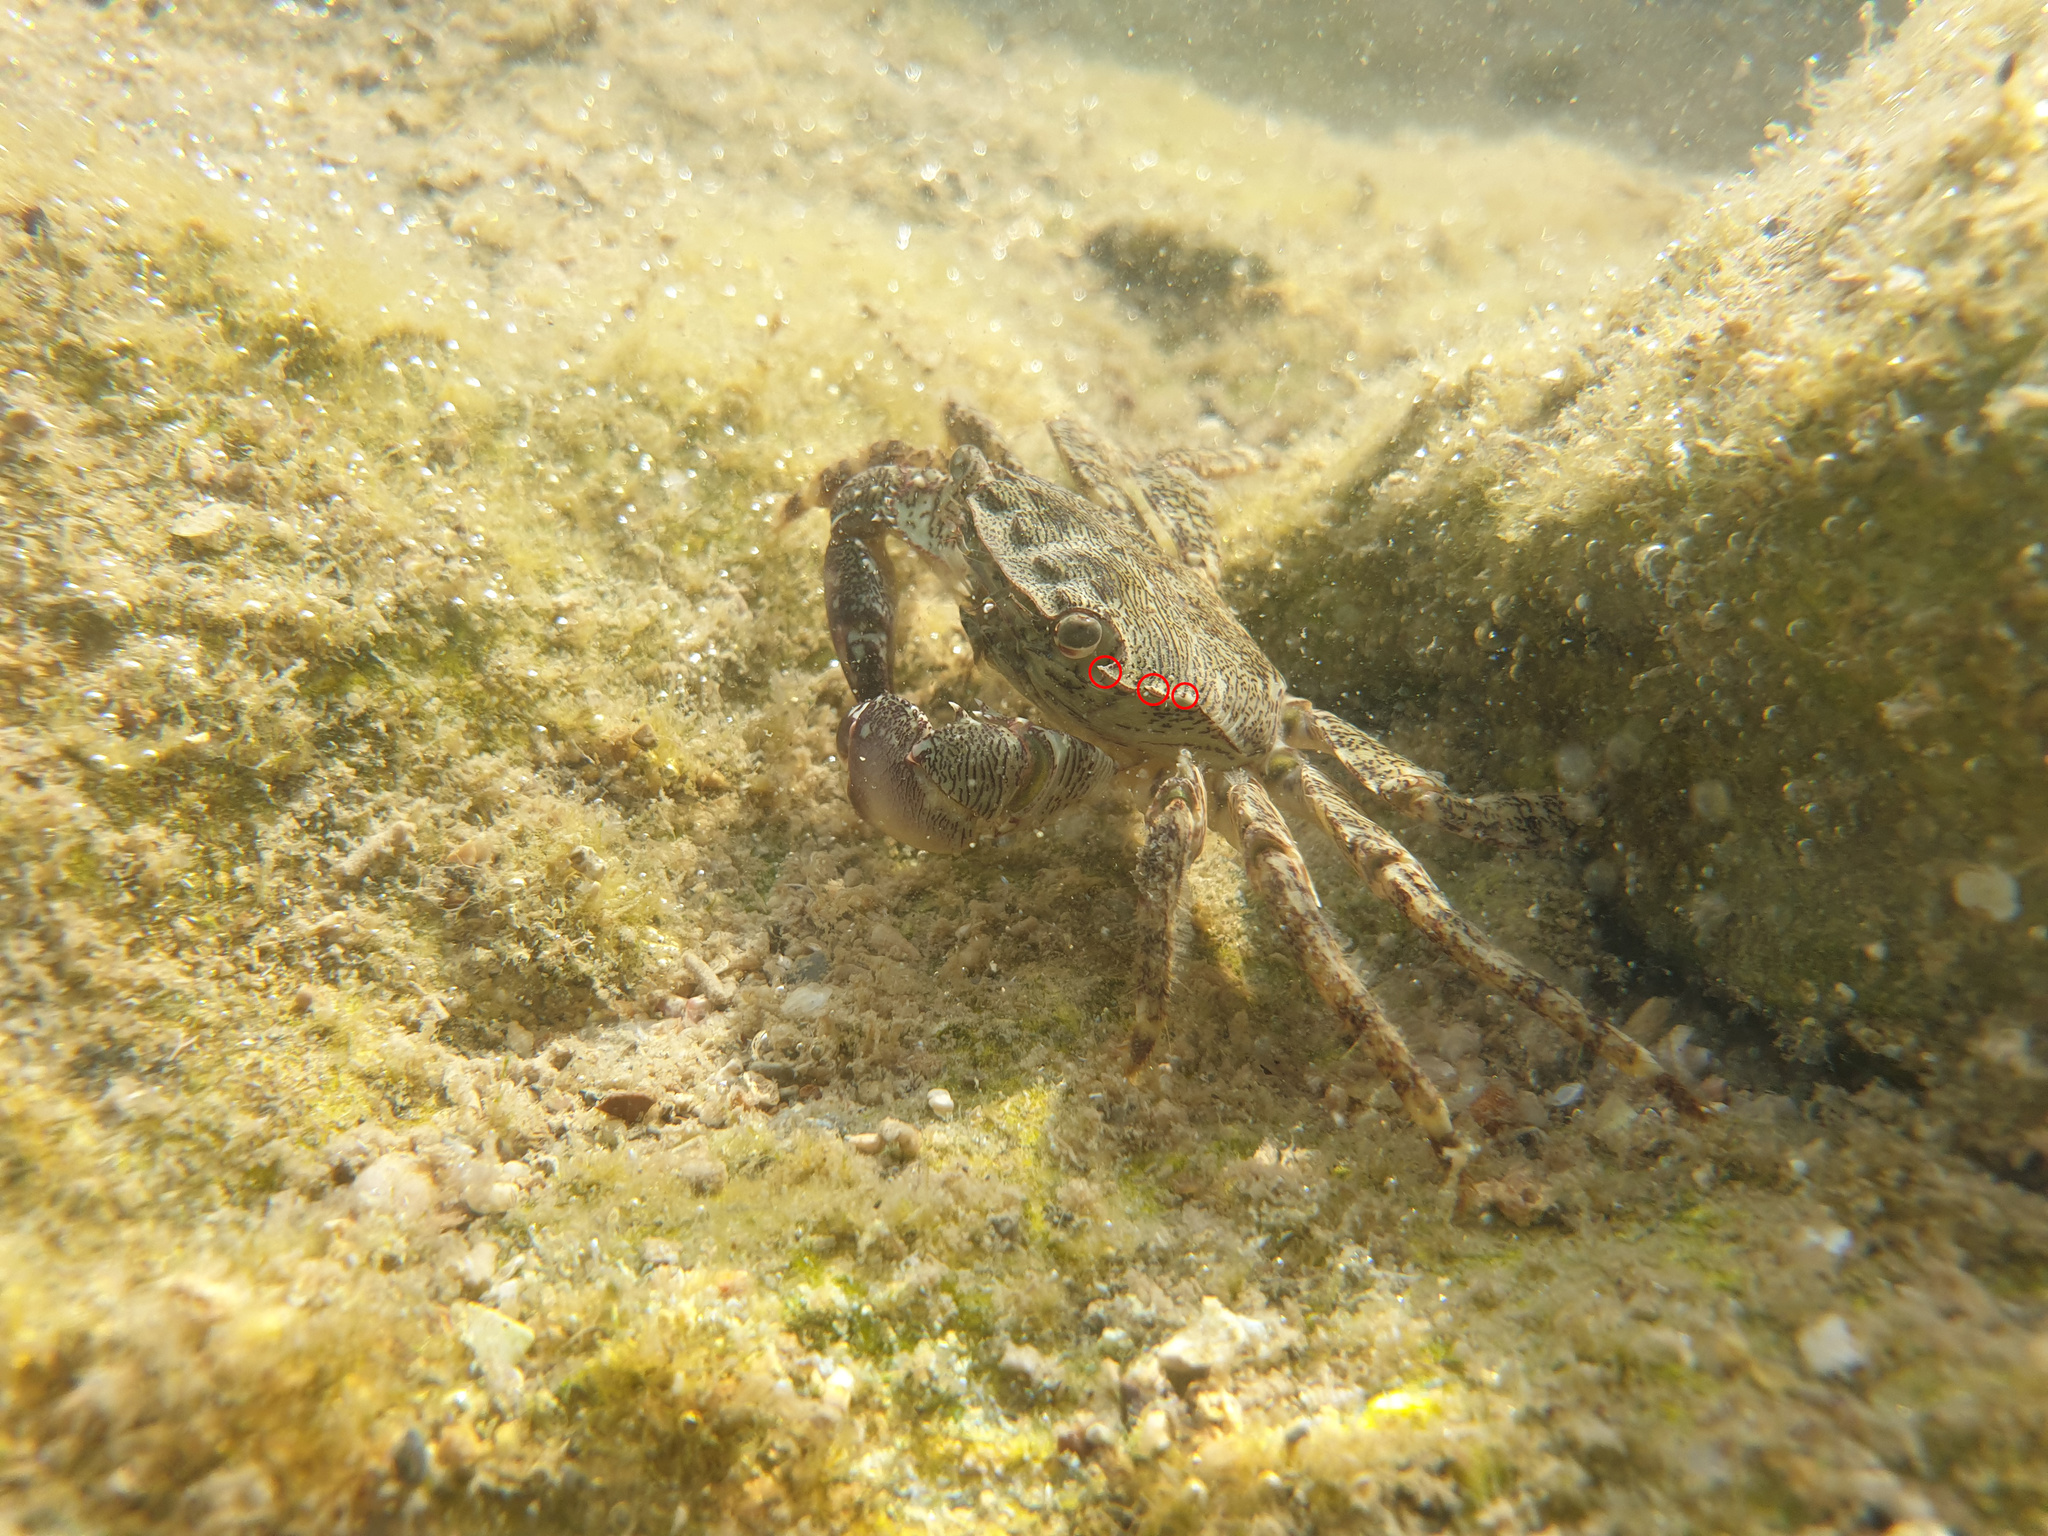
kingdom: Animalia
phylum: Arthropoda
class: Malacostraca
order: Decapoda
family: Grapsidae
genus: Pachygrapsus
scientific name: Pachygrapsus marmoratus
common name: Marbled rock crab
